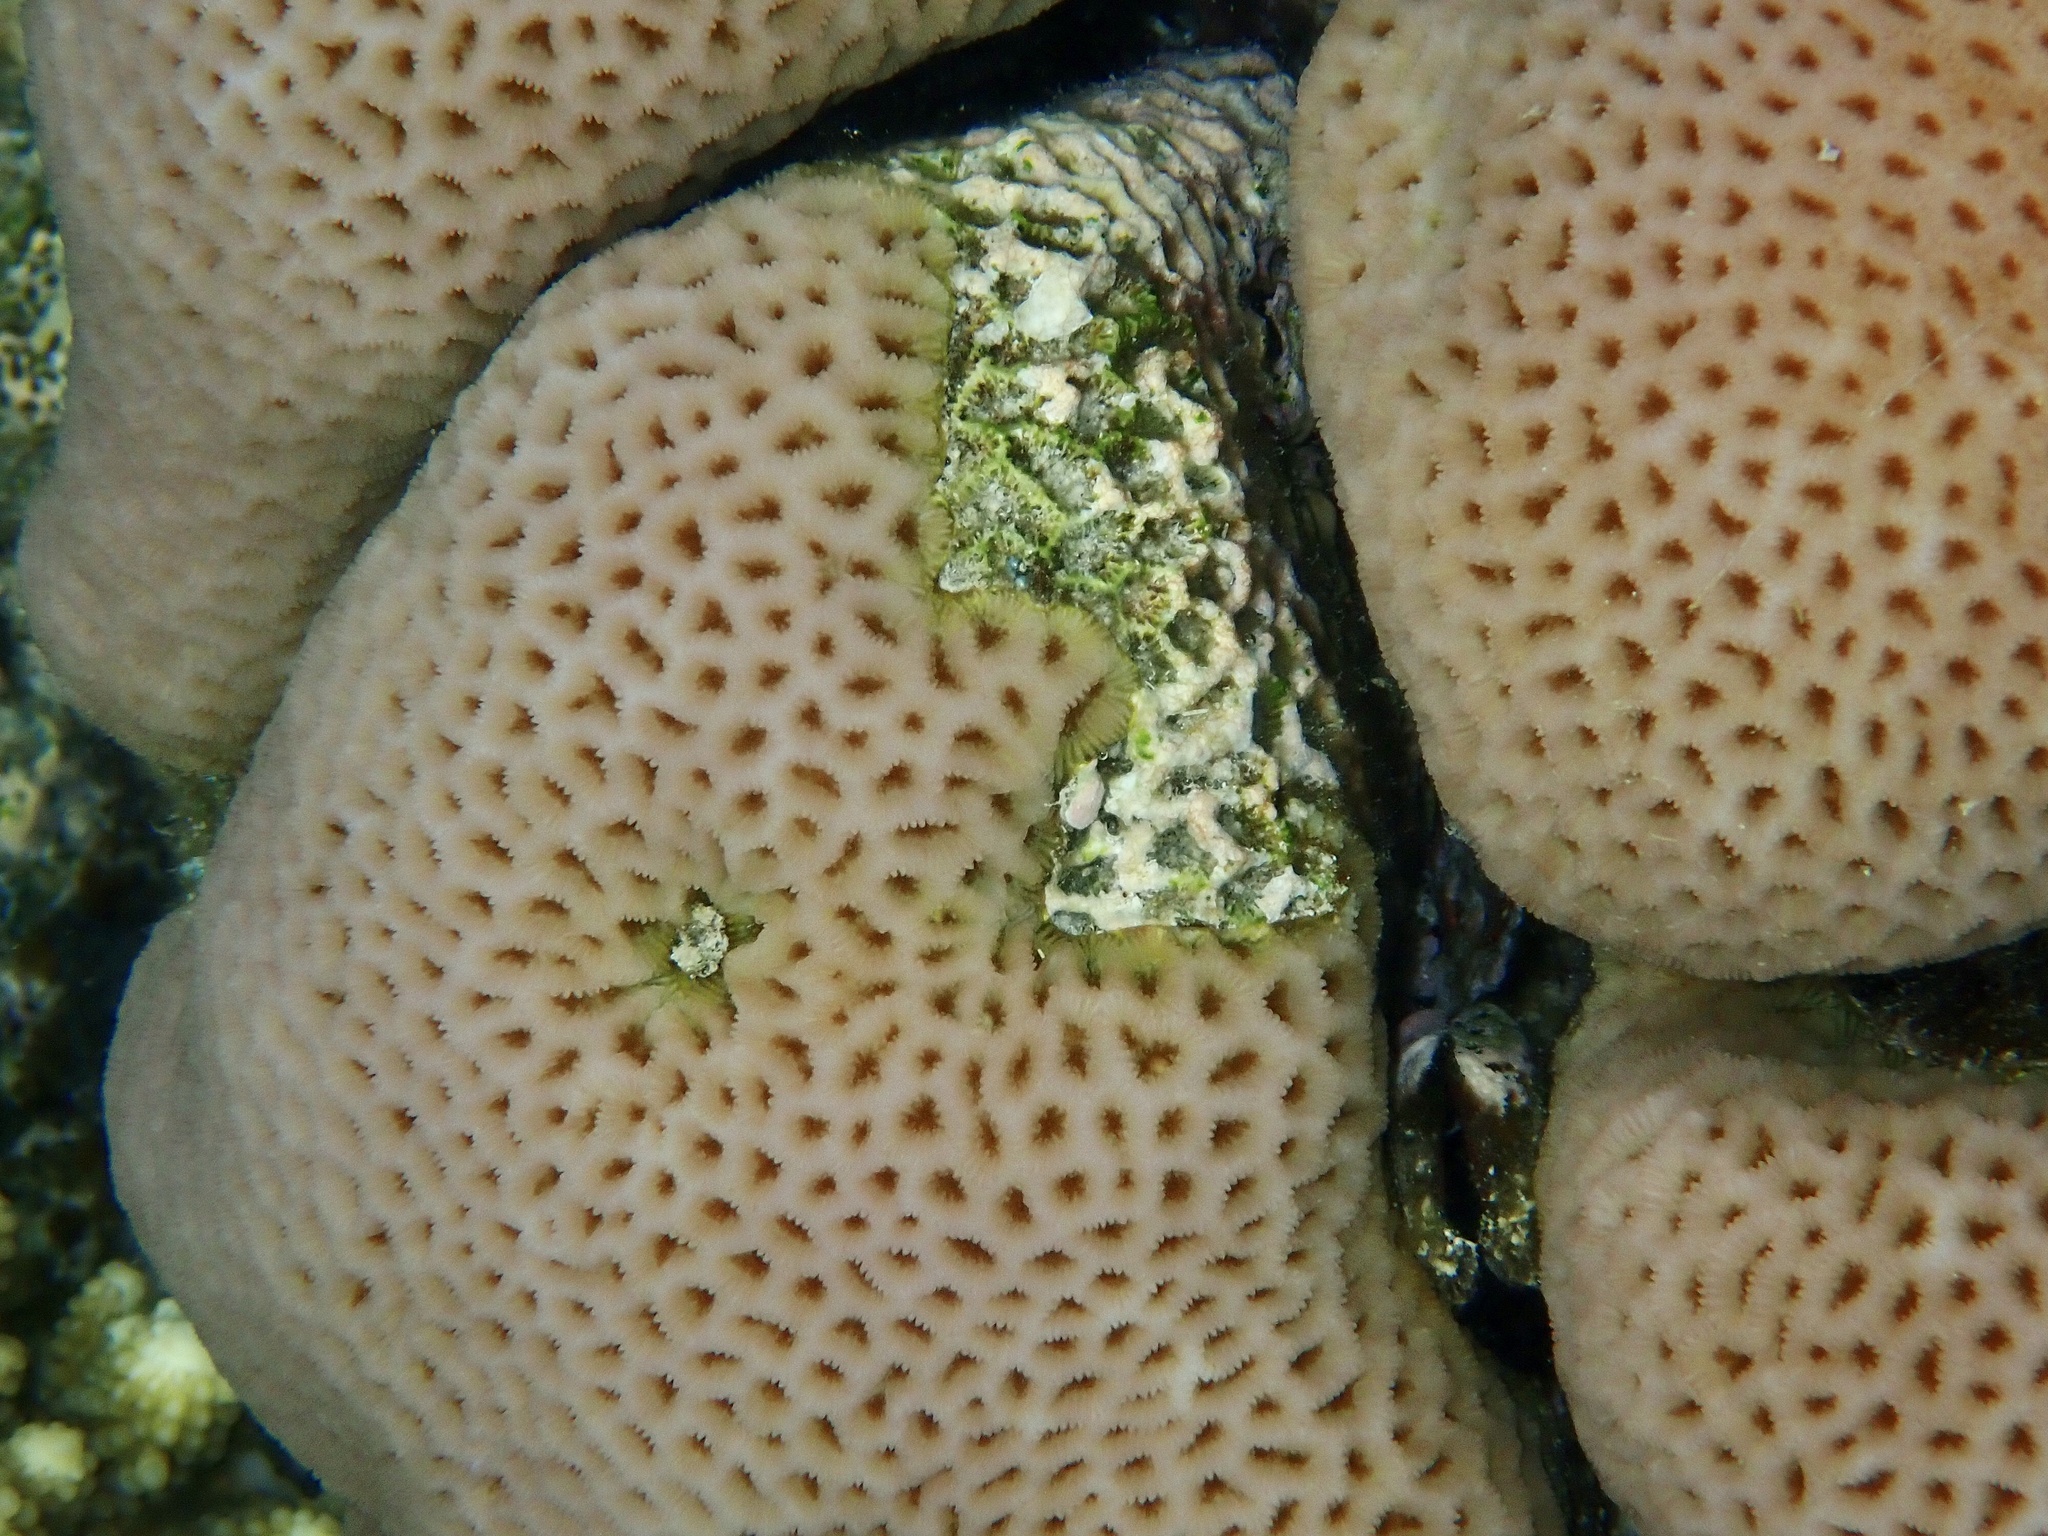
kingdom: Animalia
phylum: Cnidaria
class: Anthozoa
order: Scleractinia
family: Merulinidae
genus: Goniastrea
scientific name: Goniastrea pectinata
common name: Lesser star coral
